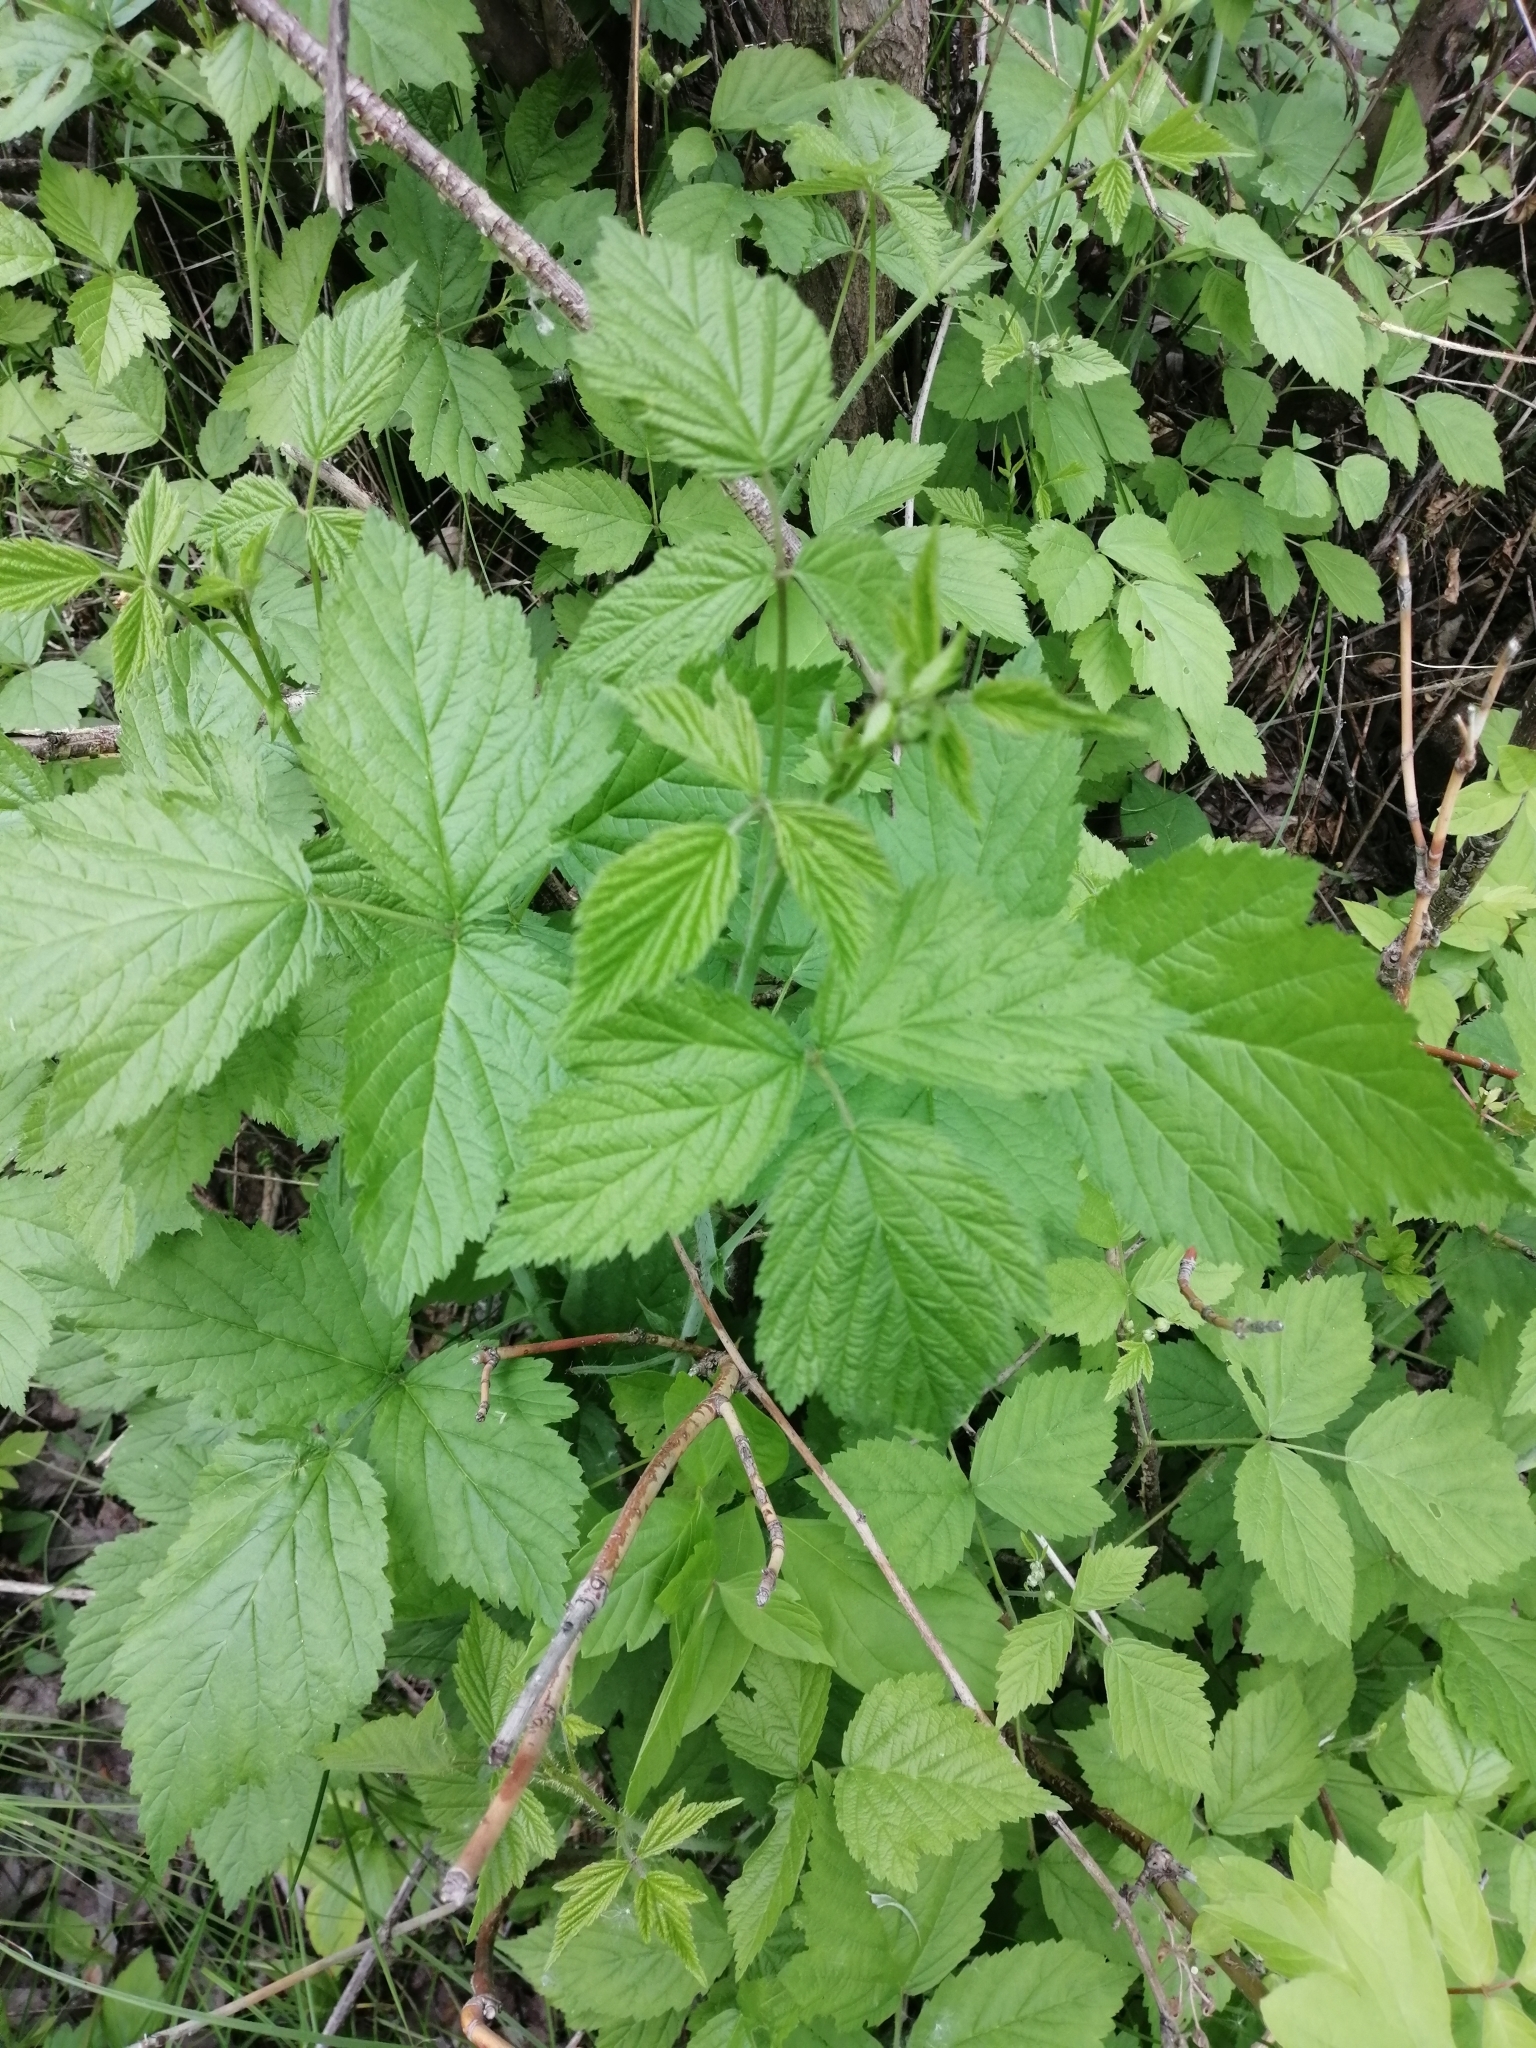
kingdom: Plantae
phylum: Tracheophyta
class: Magnoliopsida
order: Rosales
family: Rosaceae
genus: Rubus
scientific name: Rubus caesius
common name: Dewberry
